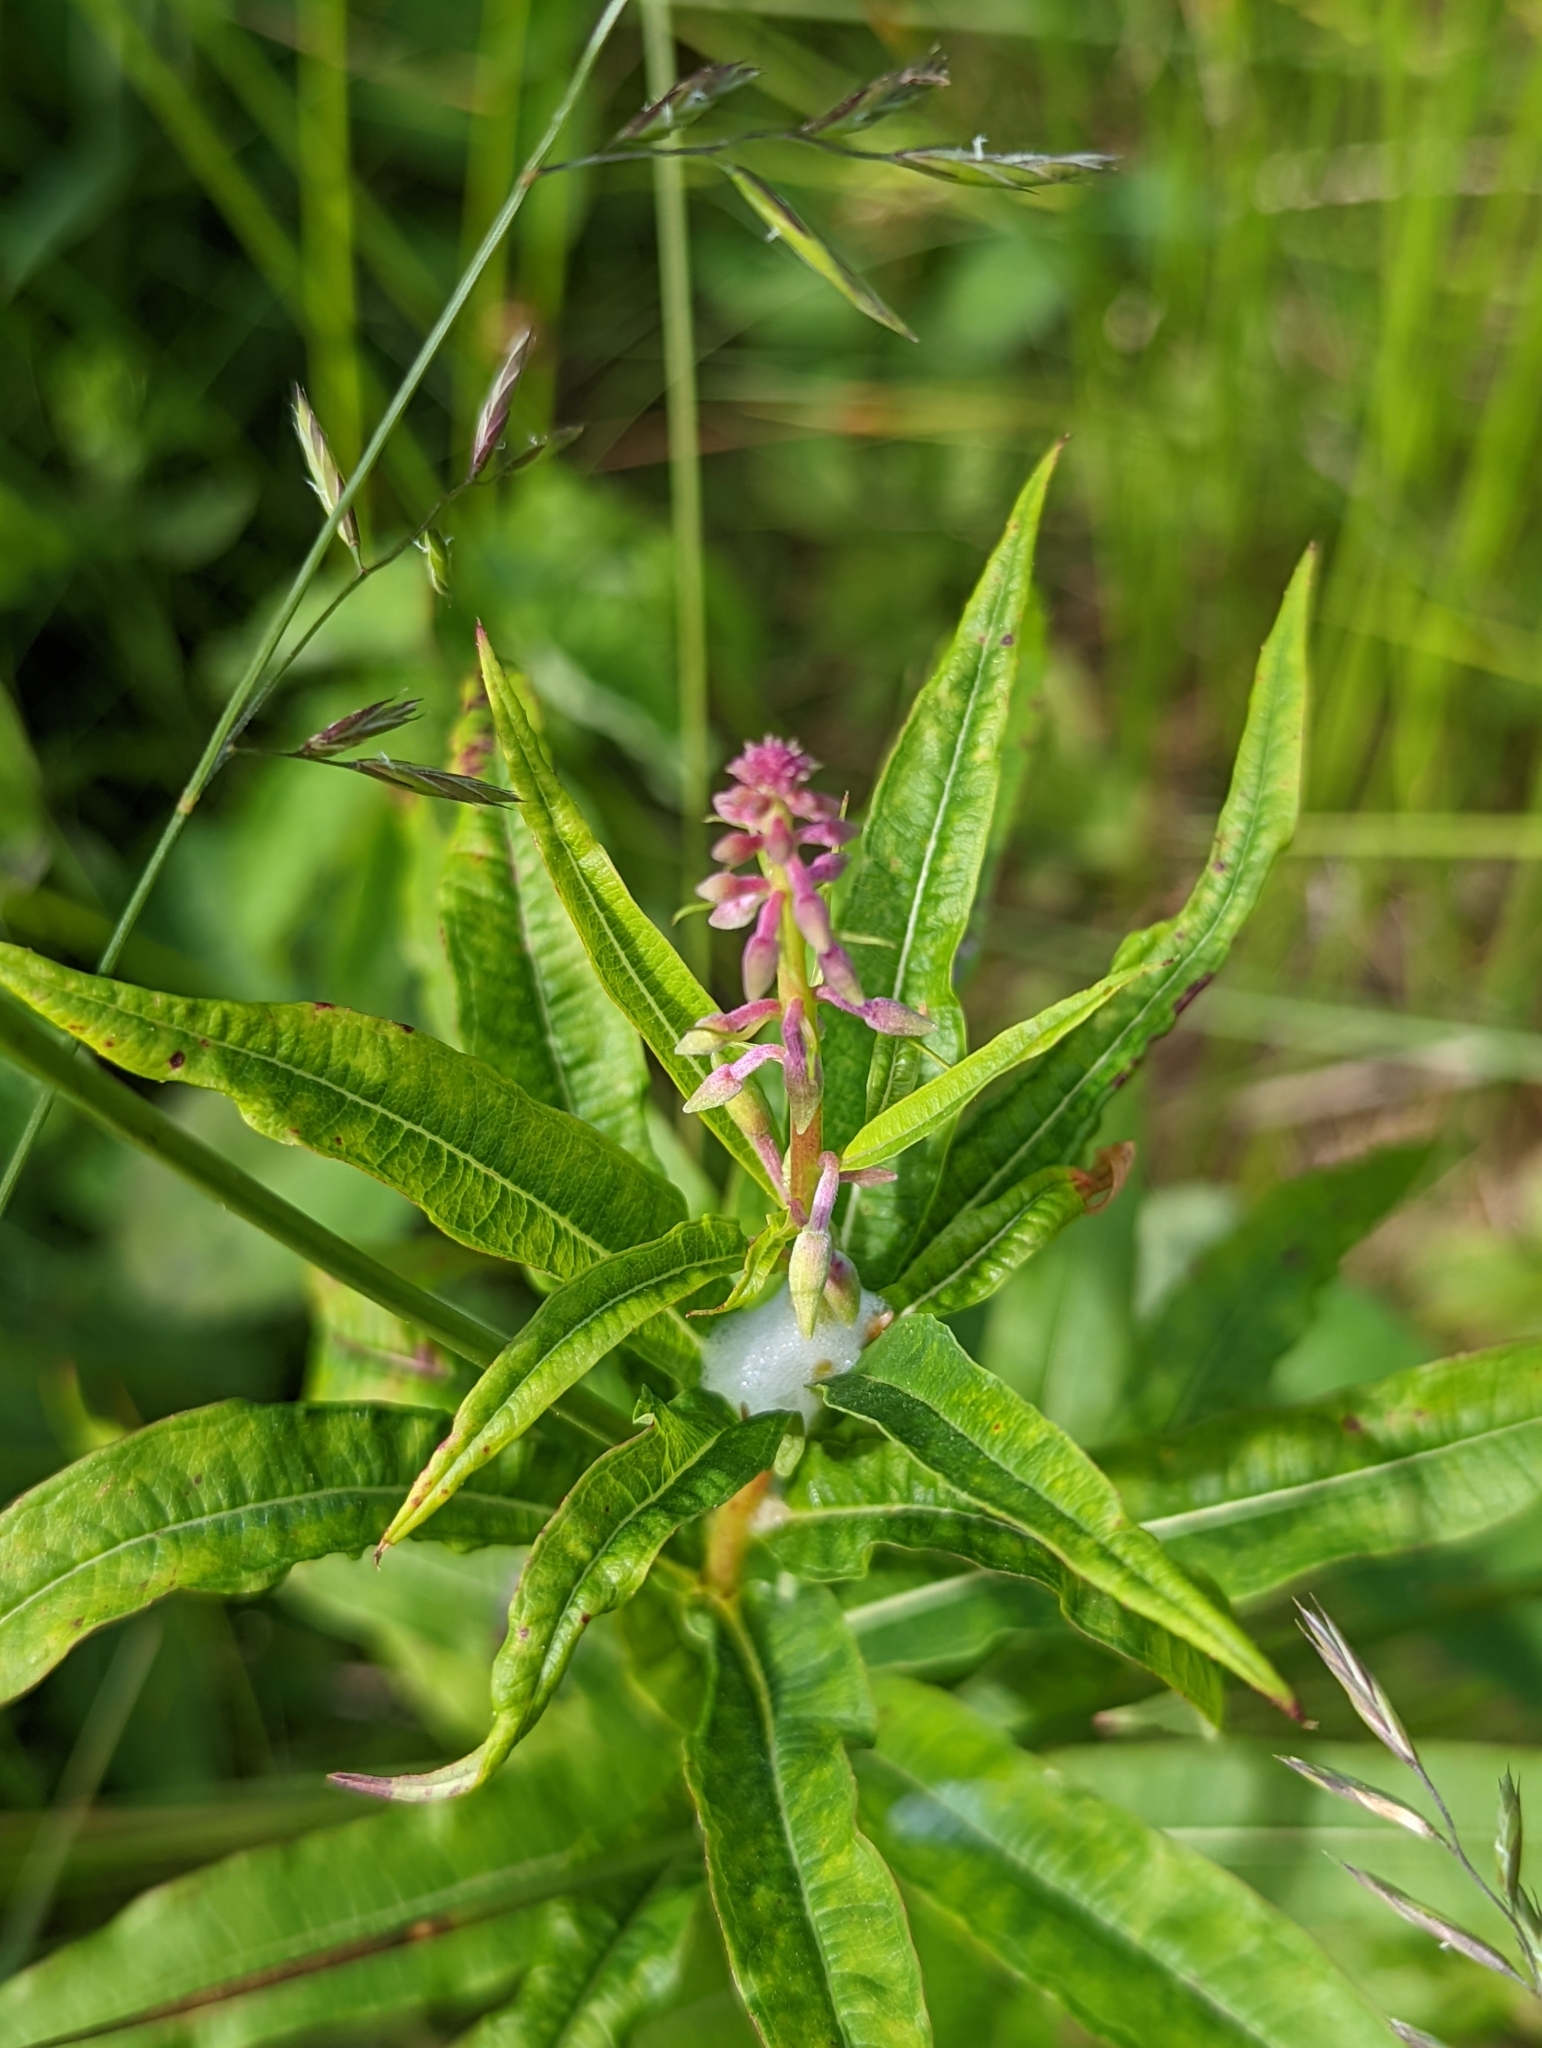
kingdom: Plantae
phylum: Tracheophyta
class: Magnoliopsida
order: Myrtales
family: Onagraceae
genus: Chamaenerion
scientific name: Chamaenerion angustifolium
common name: Fireweed
